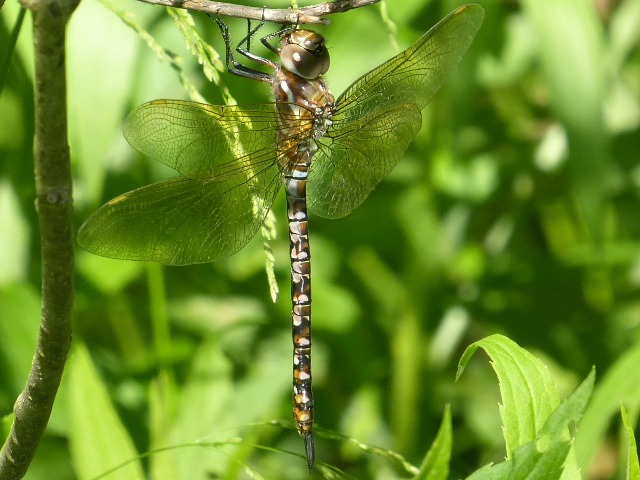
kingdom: Animalia
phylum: Arthropoda
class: Insecta
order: Odonata
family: Aeshnidae
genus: Rhionaeschna
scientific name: Rhionaeschna mutata
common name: Spatterdock darner
